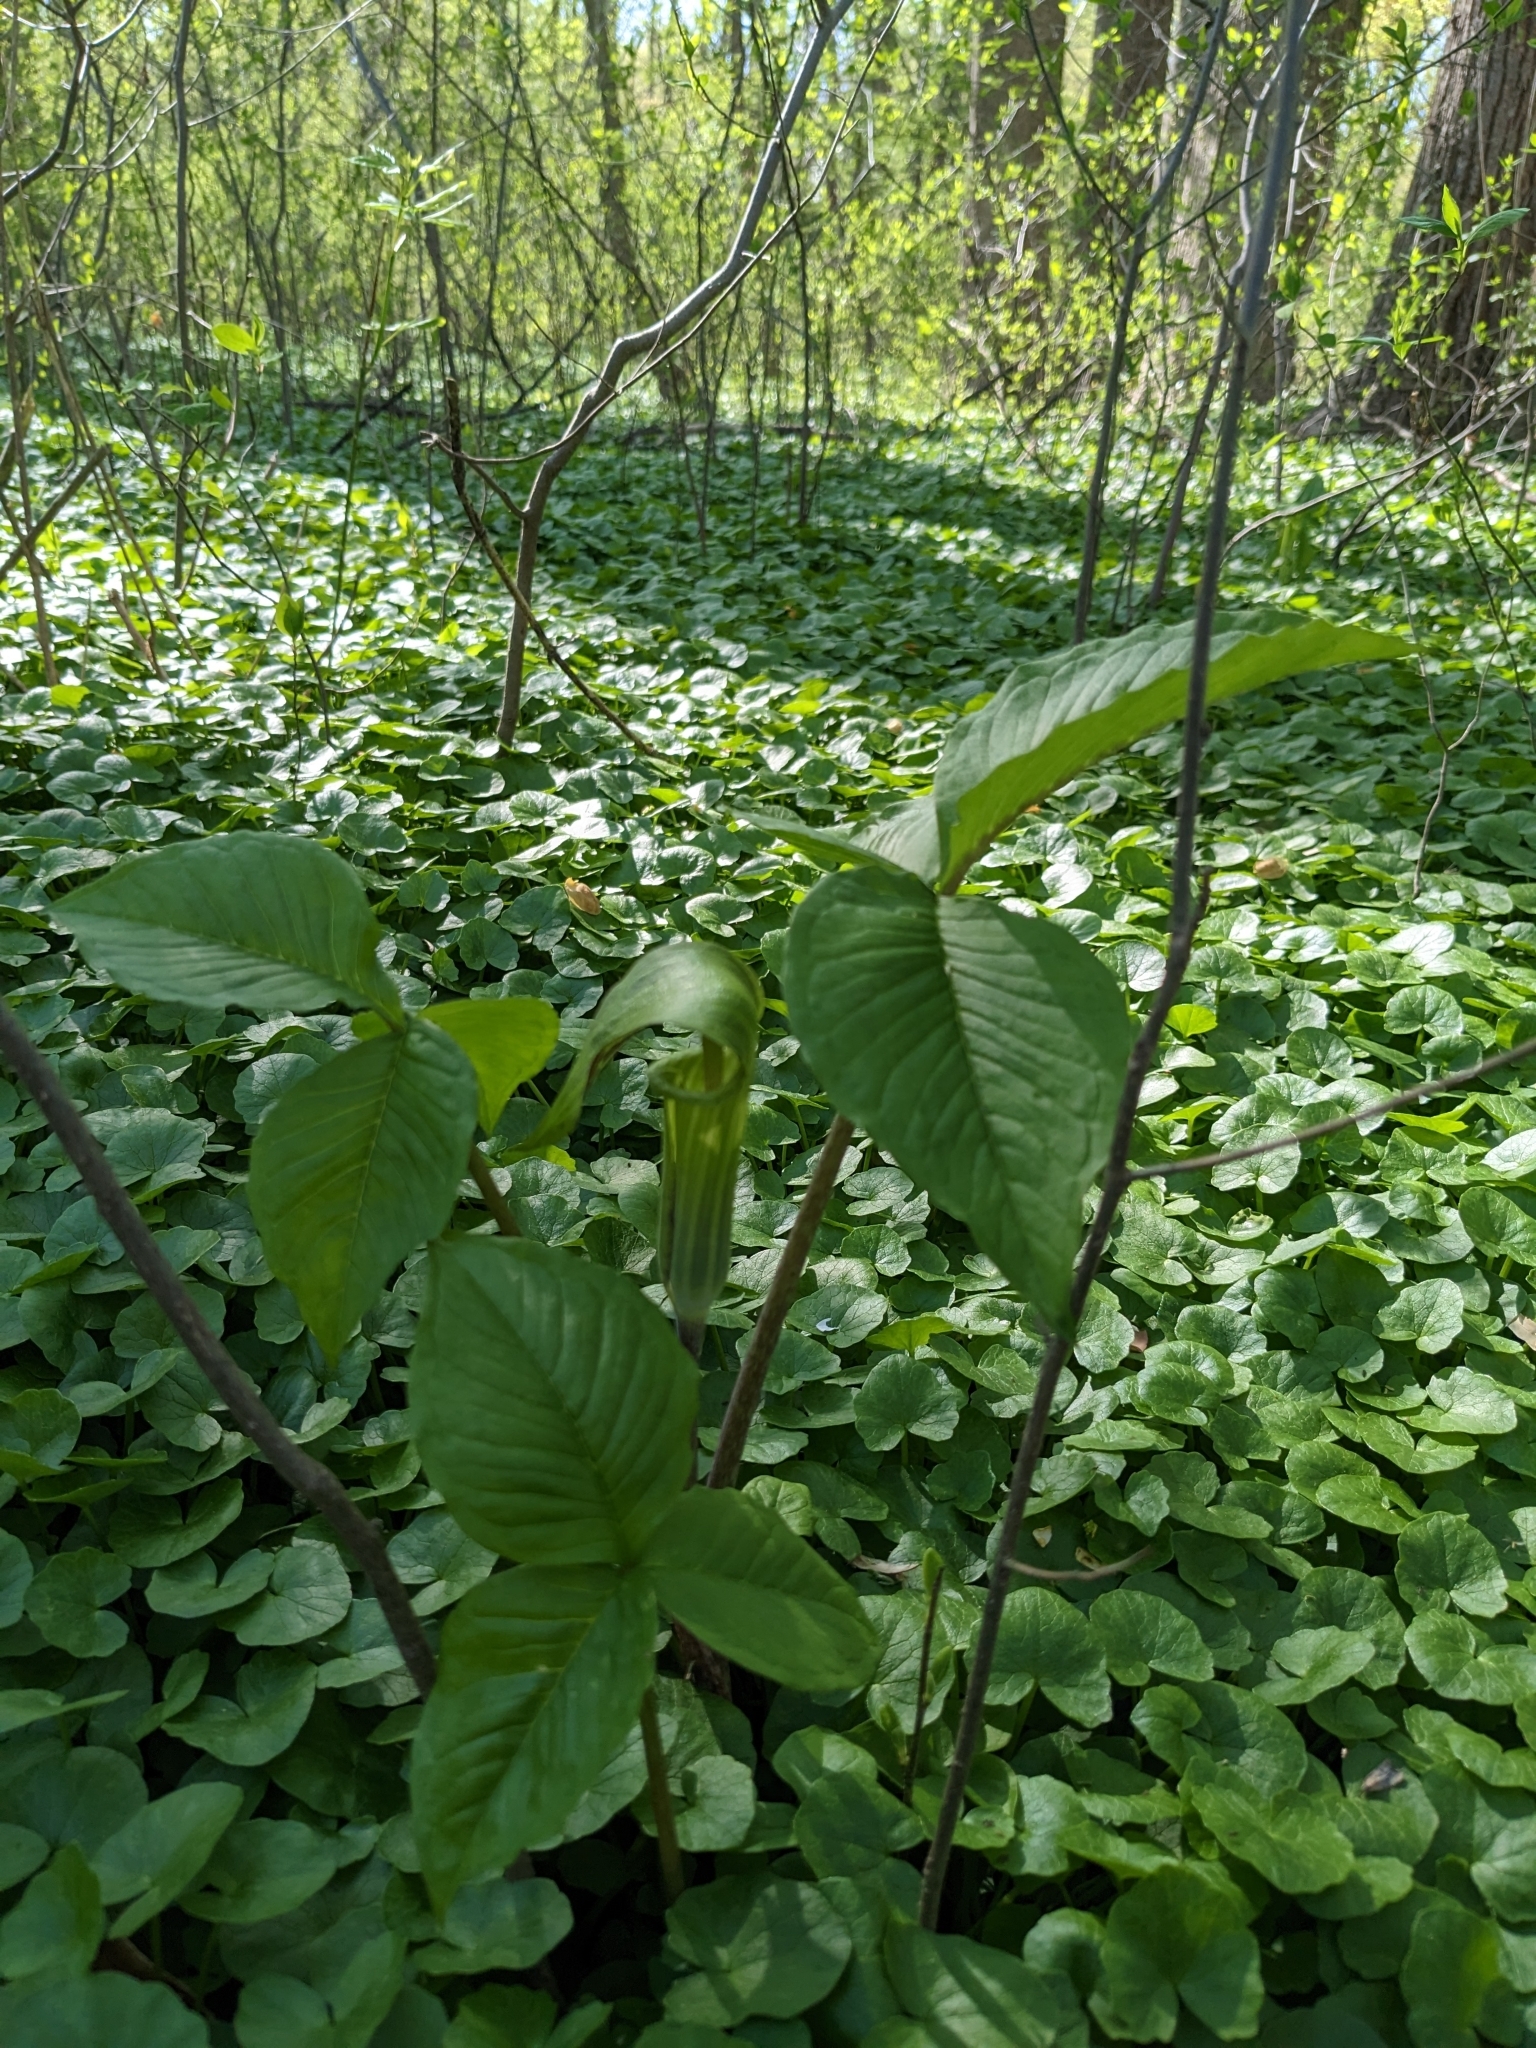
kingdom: Plantae
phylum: Tracheophyta
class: Liliopsida
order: Alismatales
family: Araceae
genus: Arisaema
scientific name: Arisaema triphyllum
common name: Jack-in-the-pulpit
